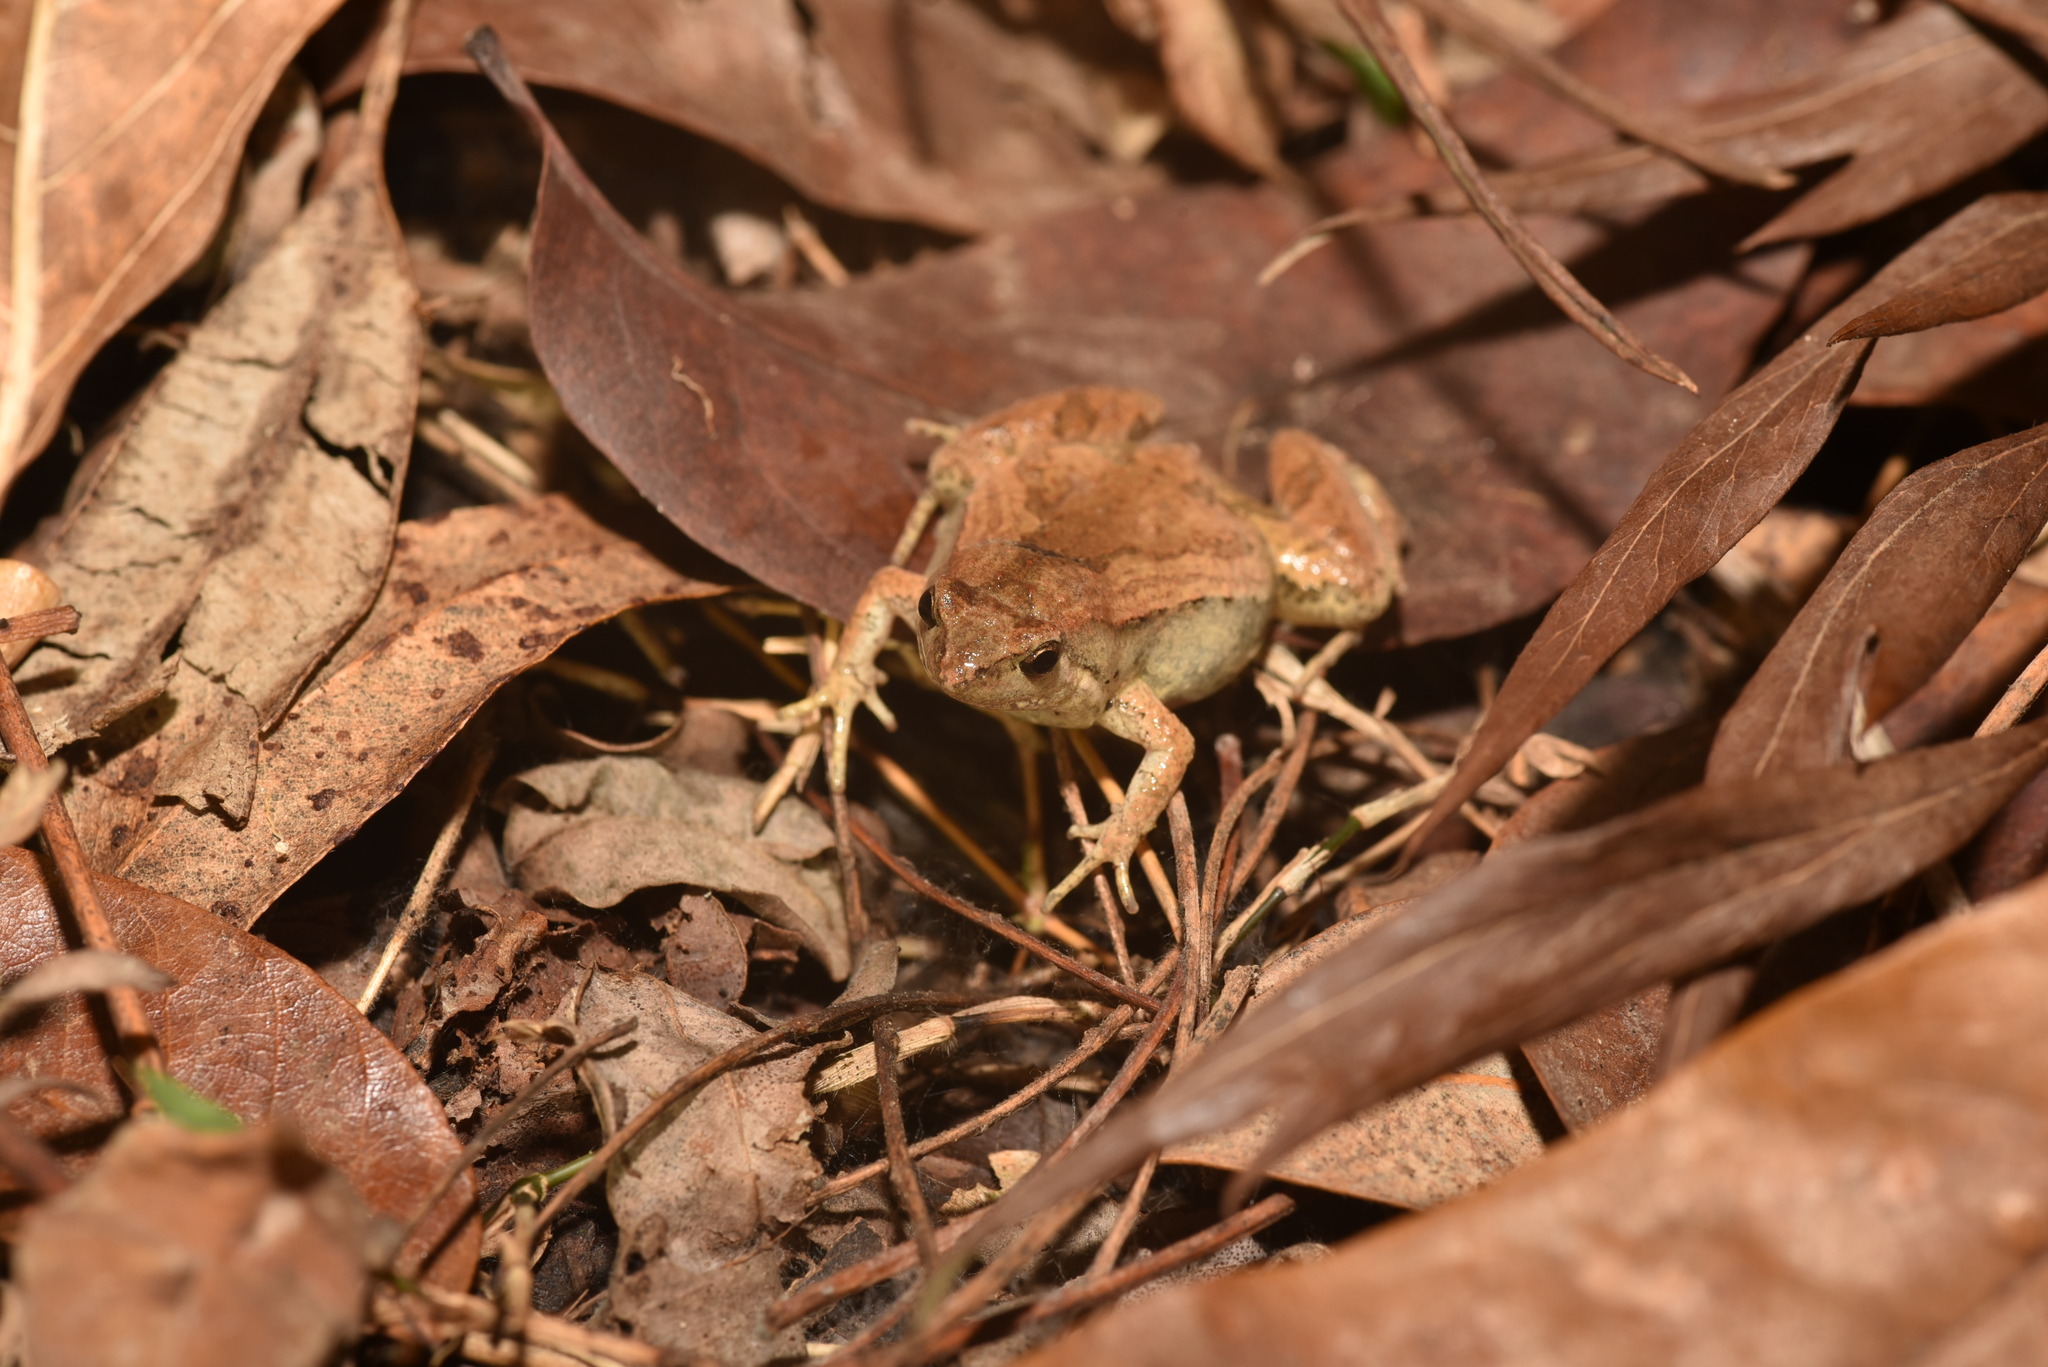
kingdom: Animalia
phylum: Chordata
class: Amphibia
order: Anura
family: Microhylidae
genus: Microhyla
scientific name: Microhyla fissipes
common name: Ornate narrow-mouthed frog
